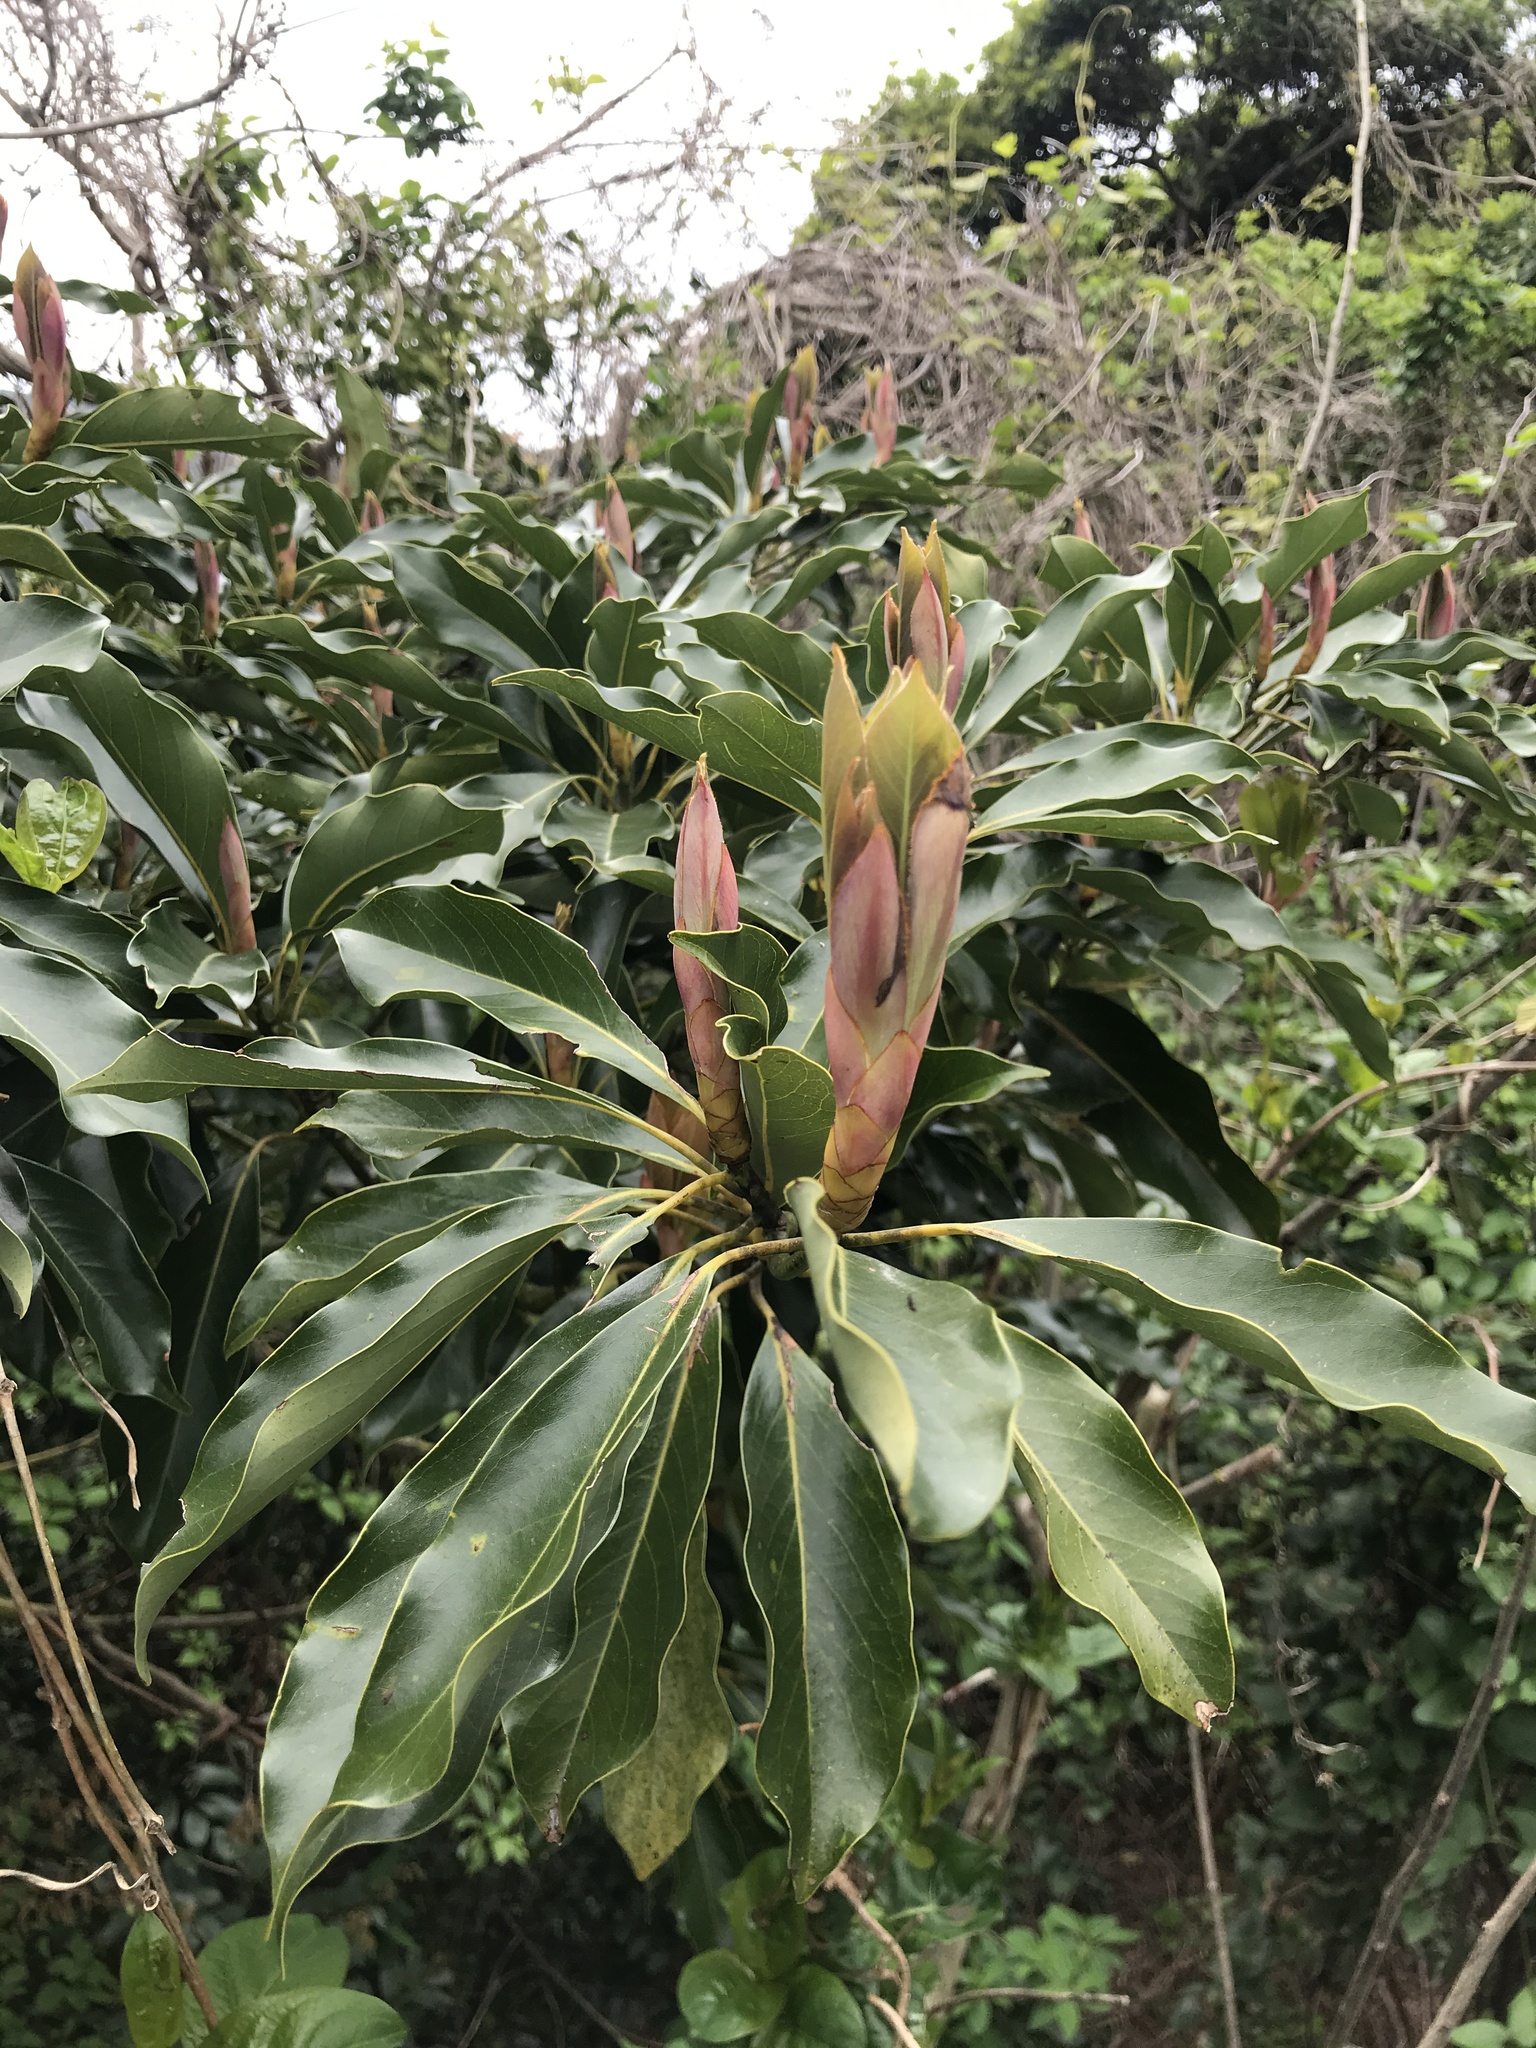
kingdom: Plantae
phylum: Tracheophyta
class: Magnoliopsida
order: Laurales
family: Lauraceae
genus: Machilus
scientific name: Machilus thunbergii
